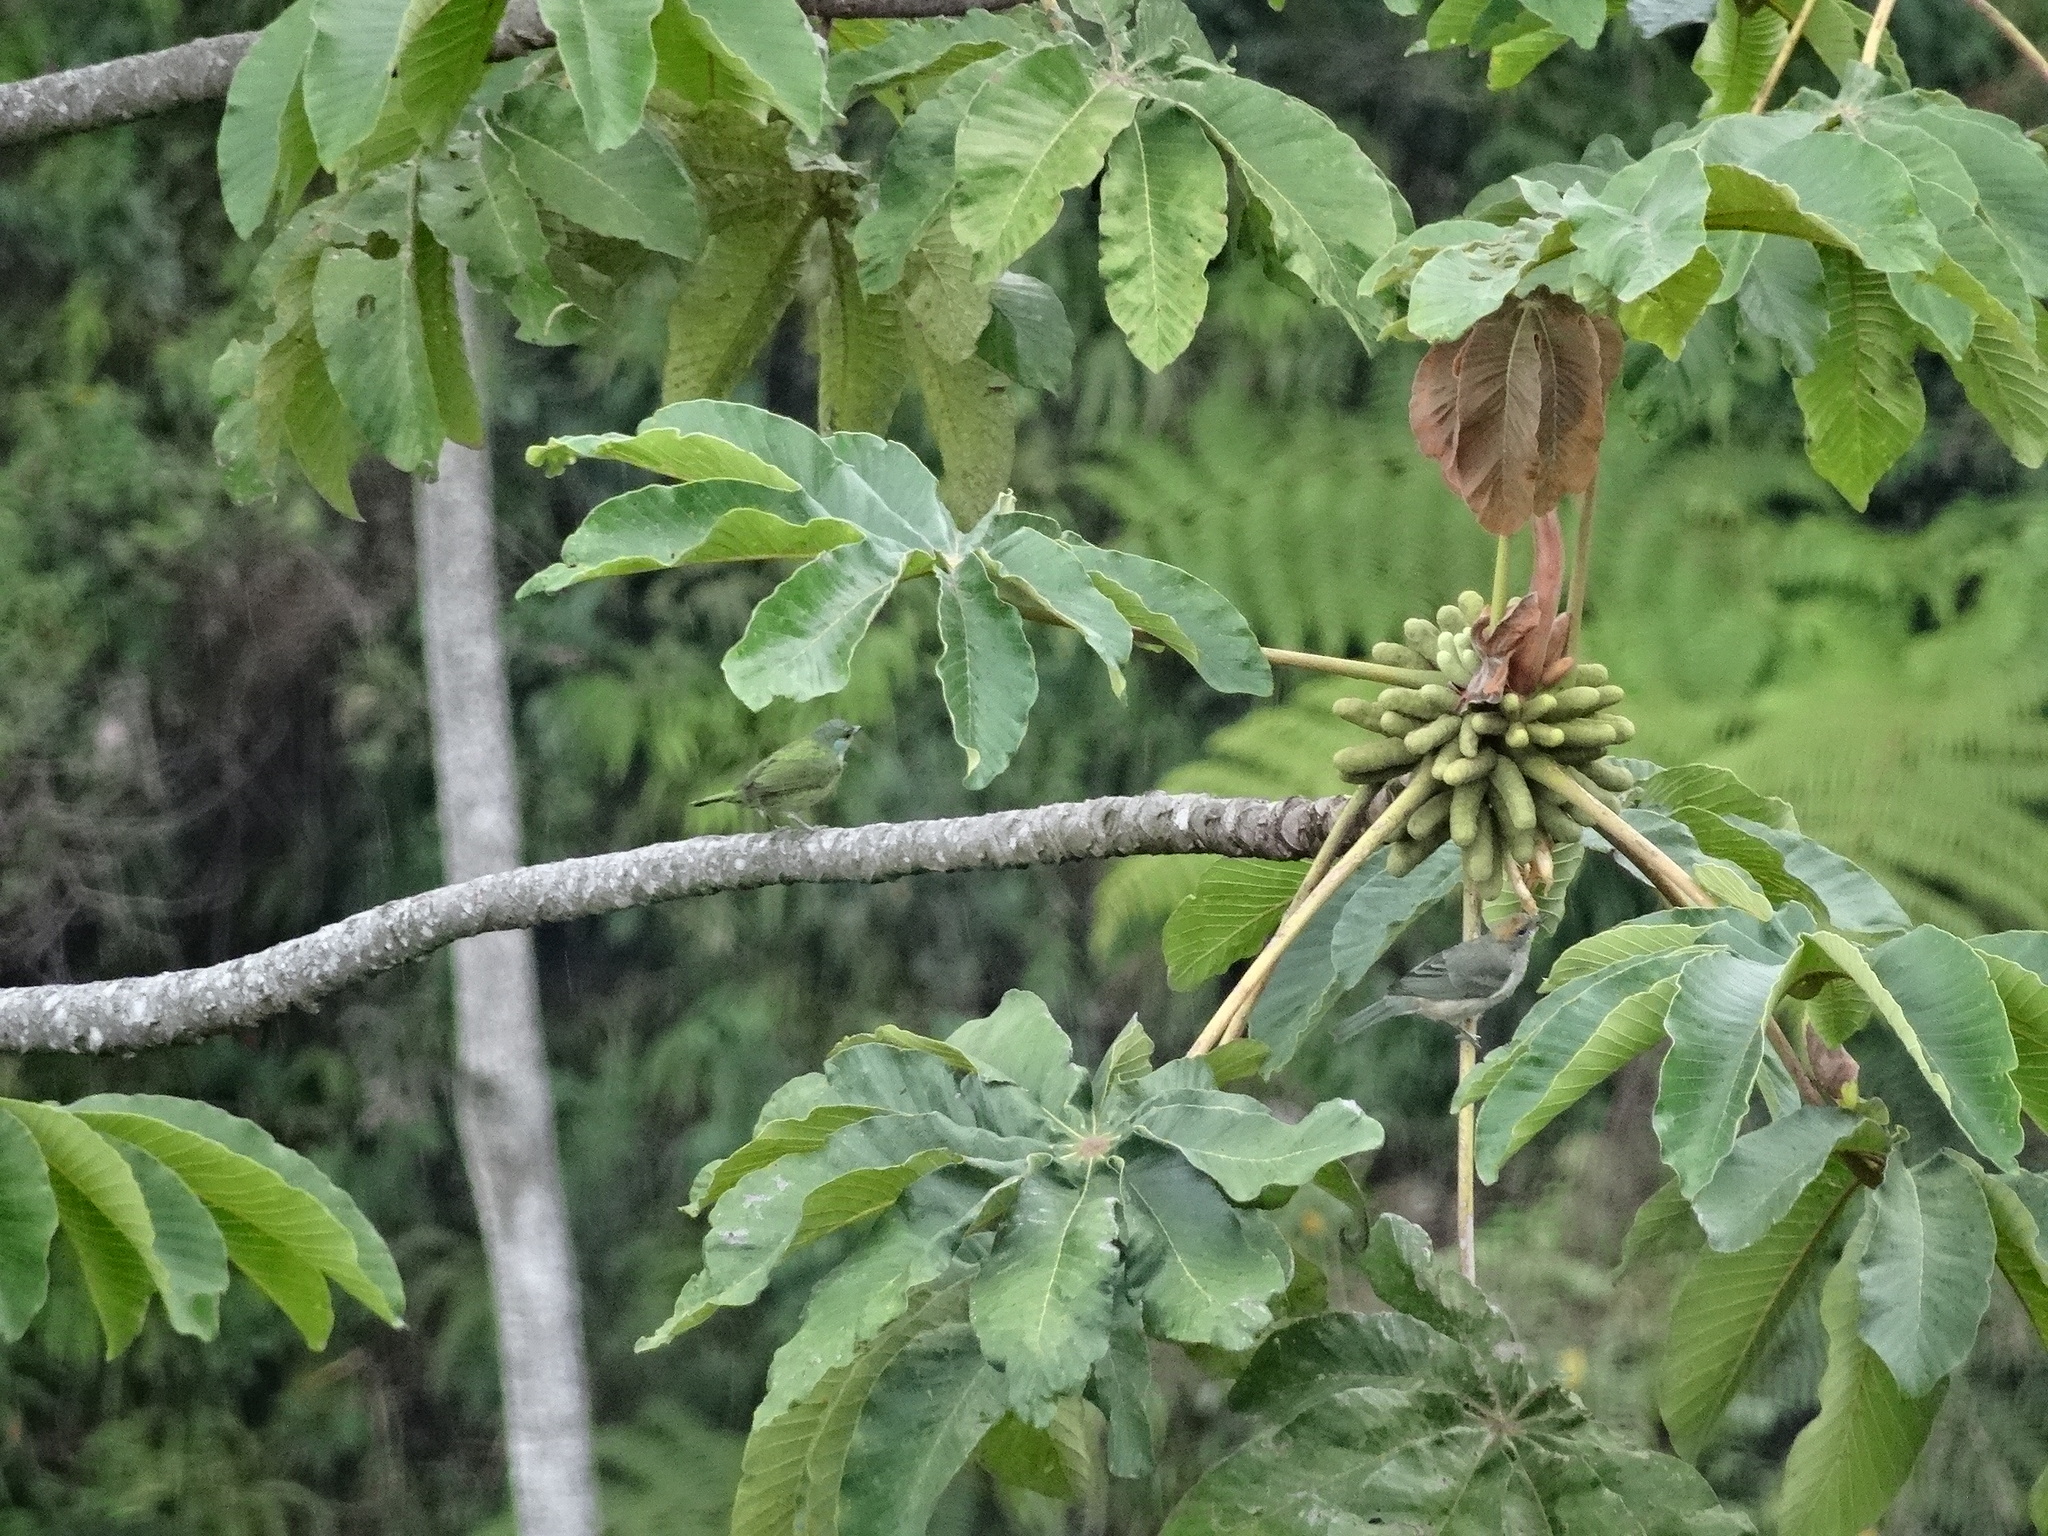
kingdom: Animalia
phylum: Chordata
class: Aves
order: Passeriformes
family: Thraupidae
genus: Stilpnia
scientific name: Stilpnia heinei
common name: Black-capped tanager
